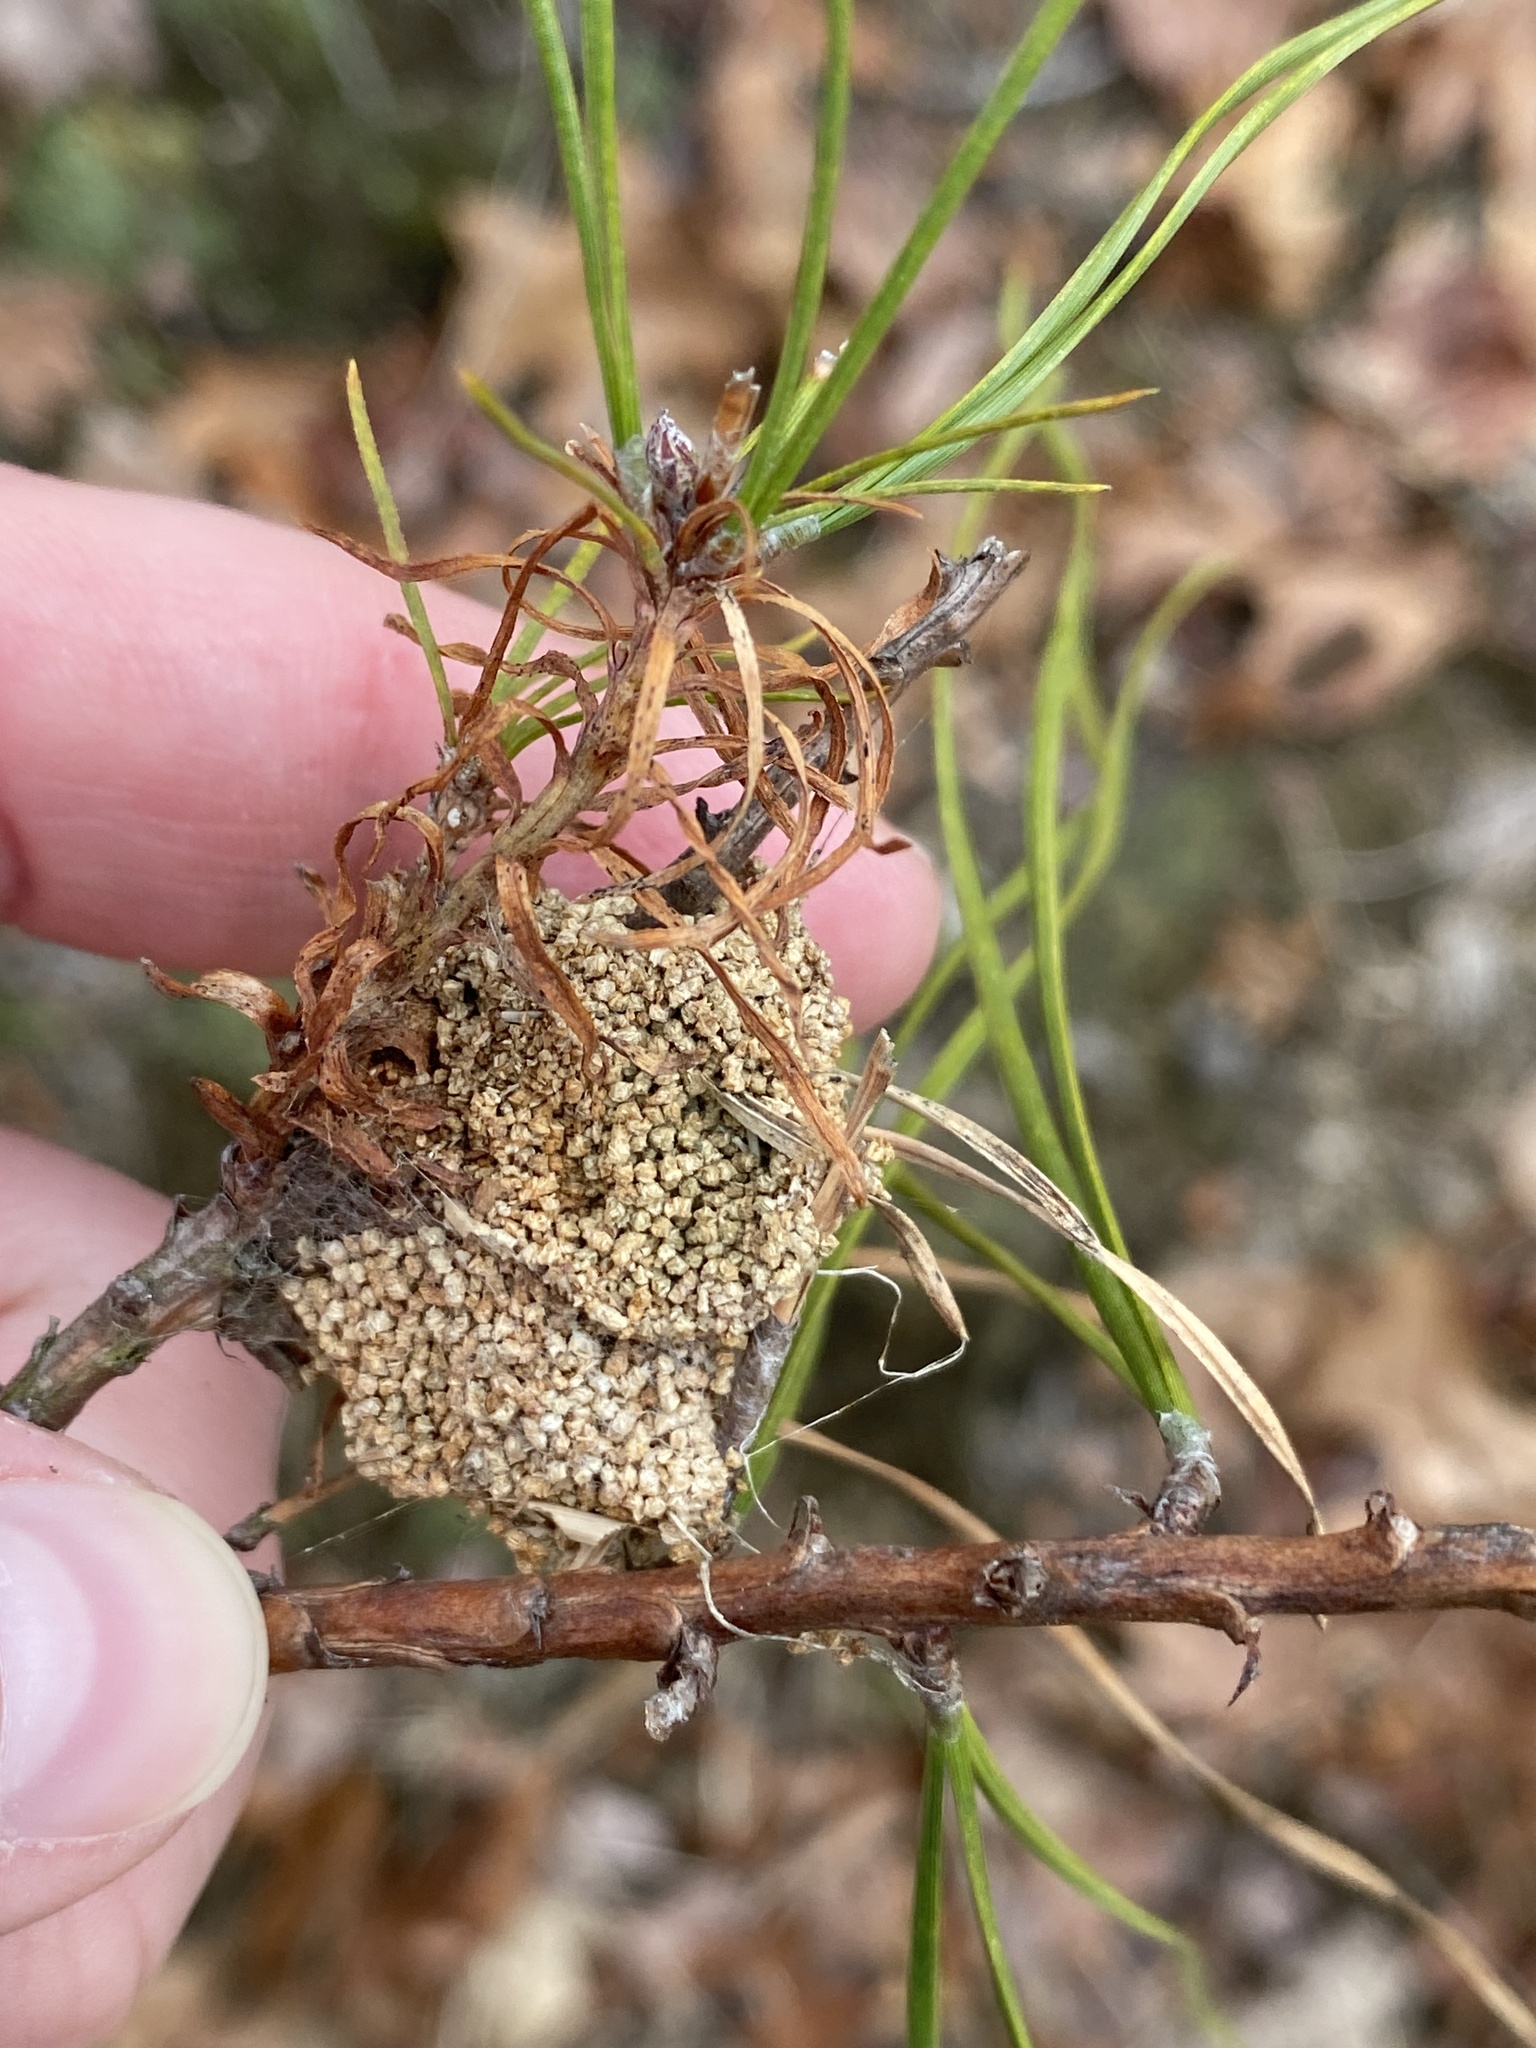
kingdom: Animalia
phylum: Arthropoda
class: Insecta
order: Lepidoptera
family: Pyralidae
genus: Pococera
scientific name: Pococera robustella
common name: Pine webworm moth
